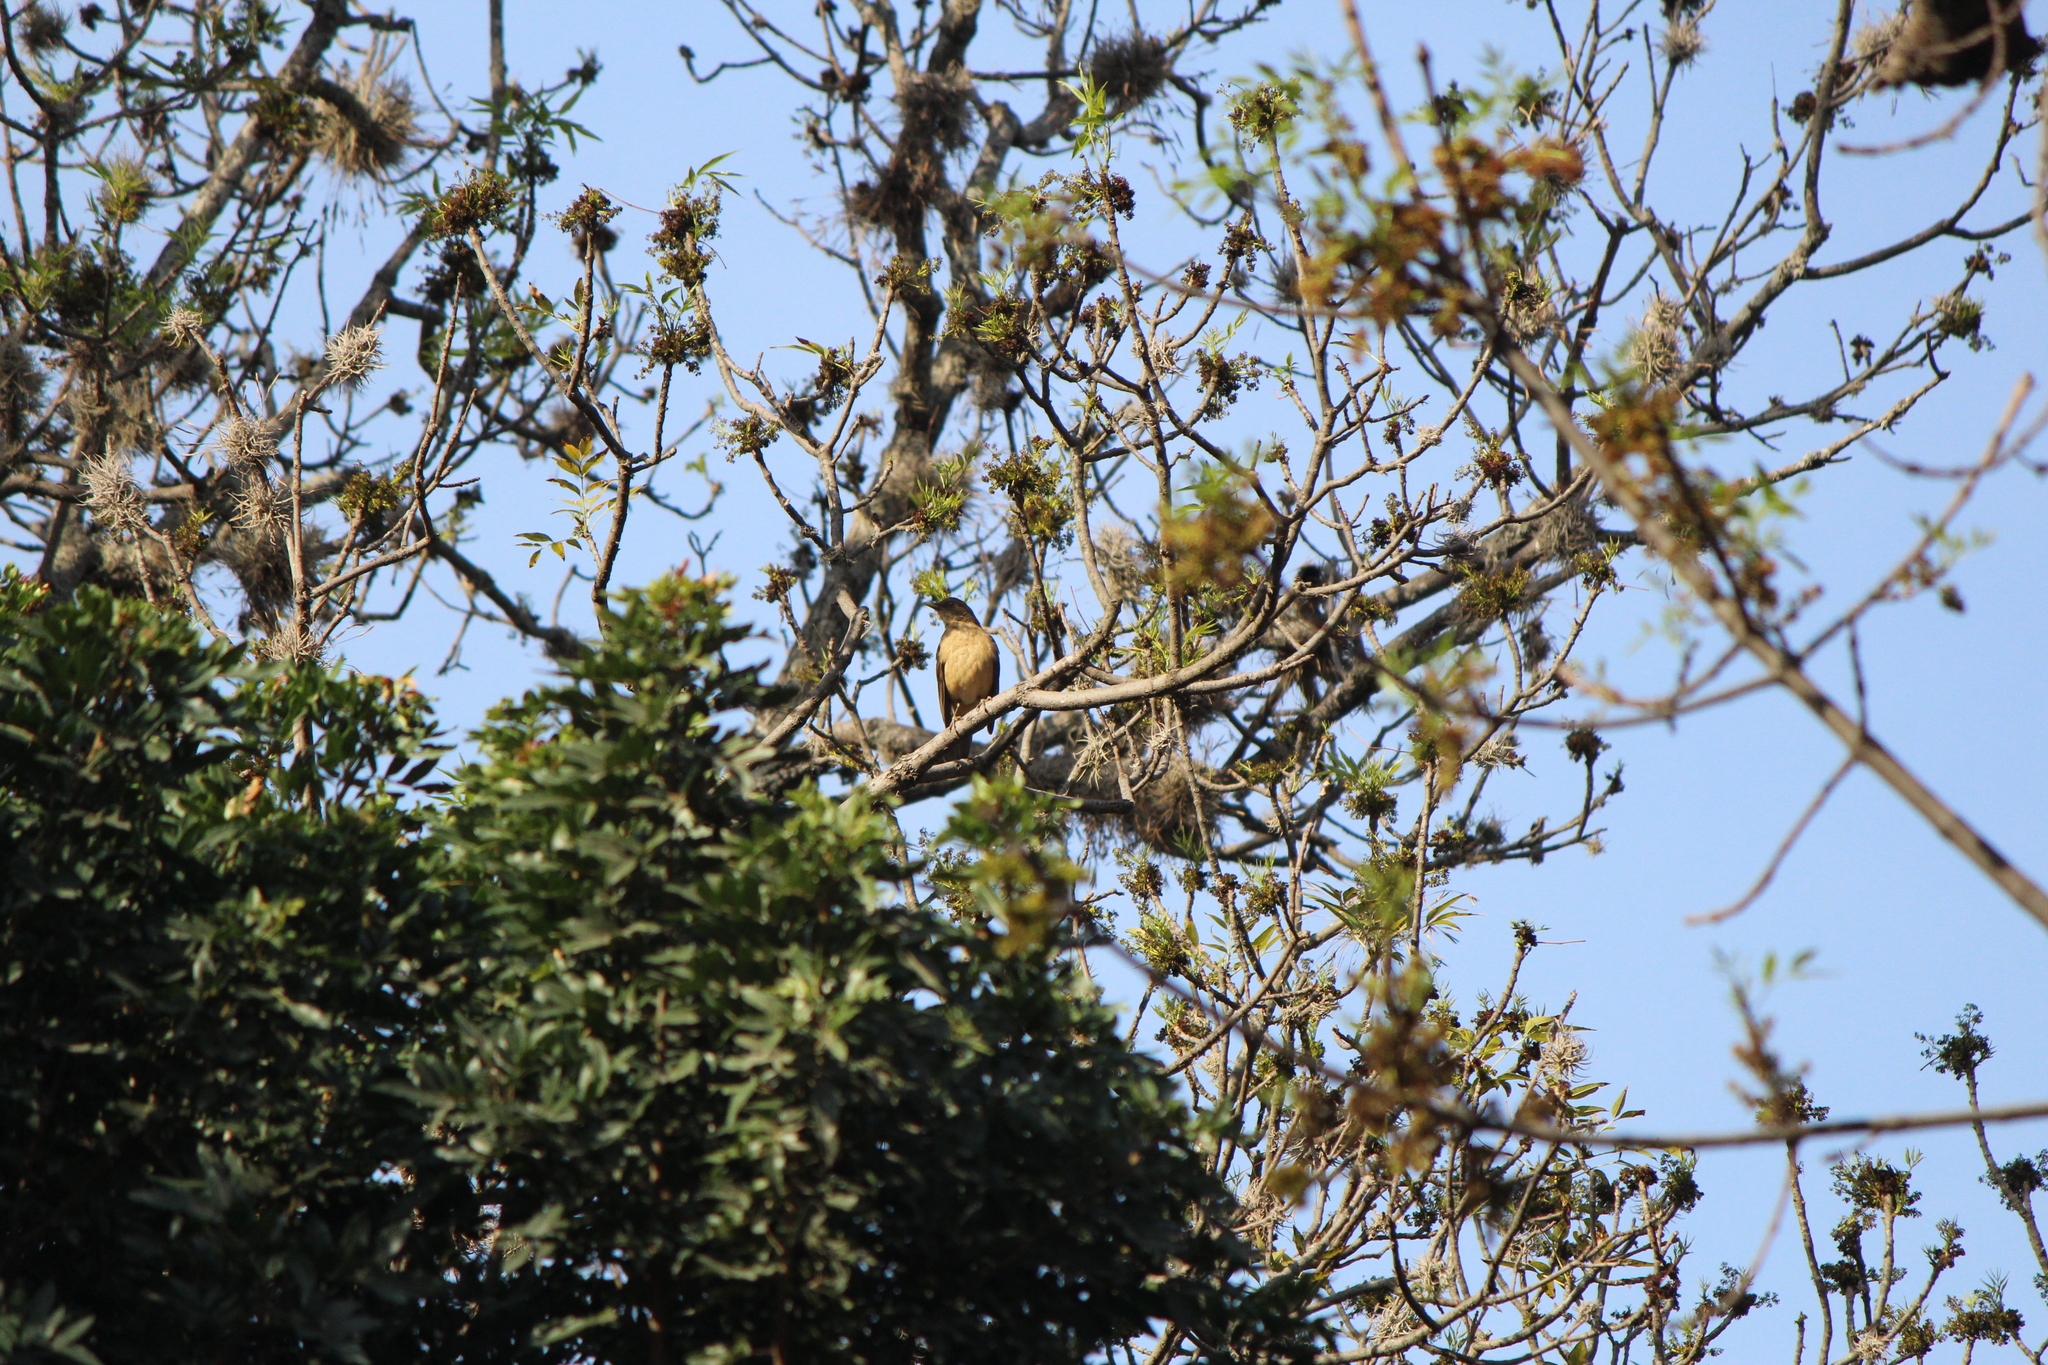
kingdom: Animalia
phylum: Chordata
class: Aves
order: Passeriformes
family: Turdidae
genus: Turdus
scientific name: Turdus grayi
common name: Clay-colored thrush
